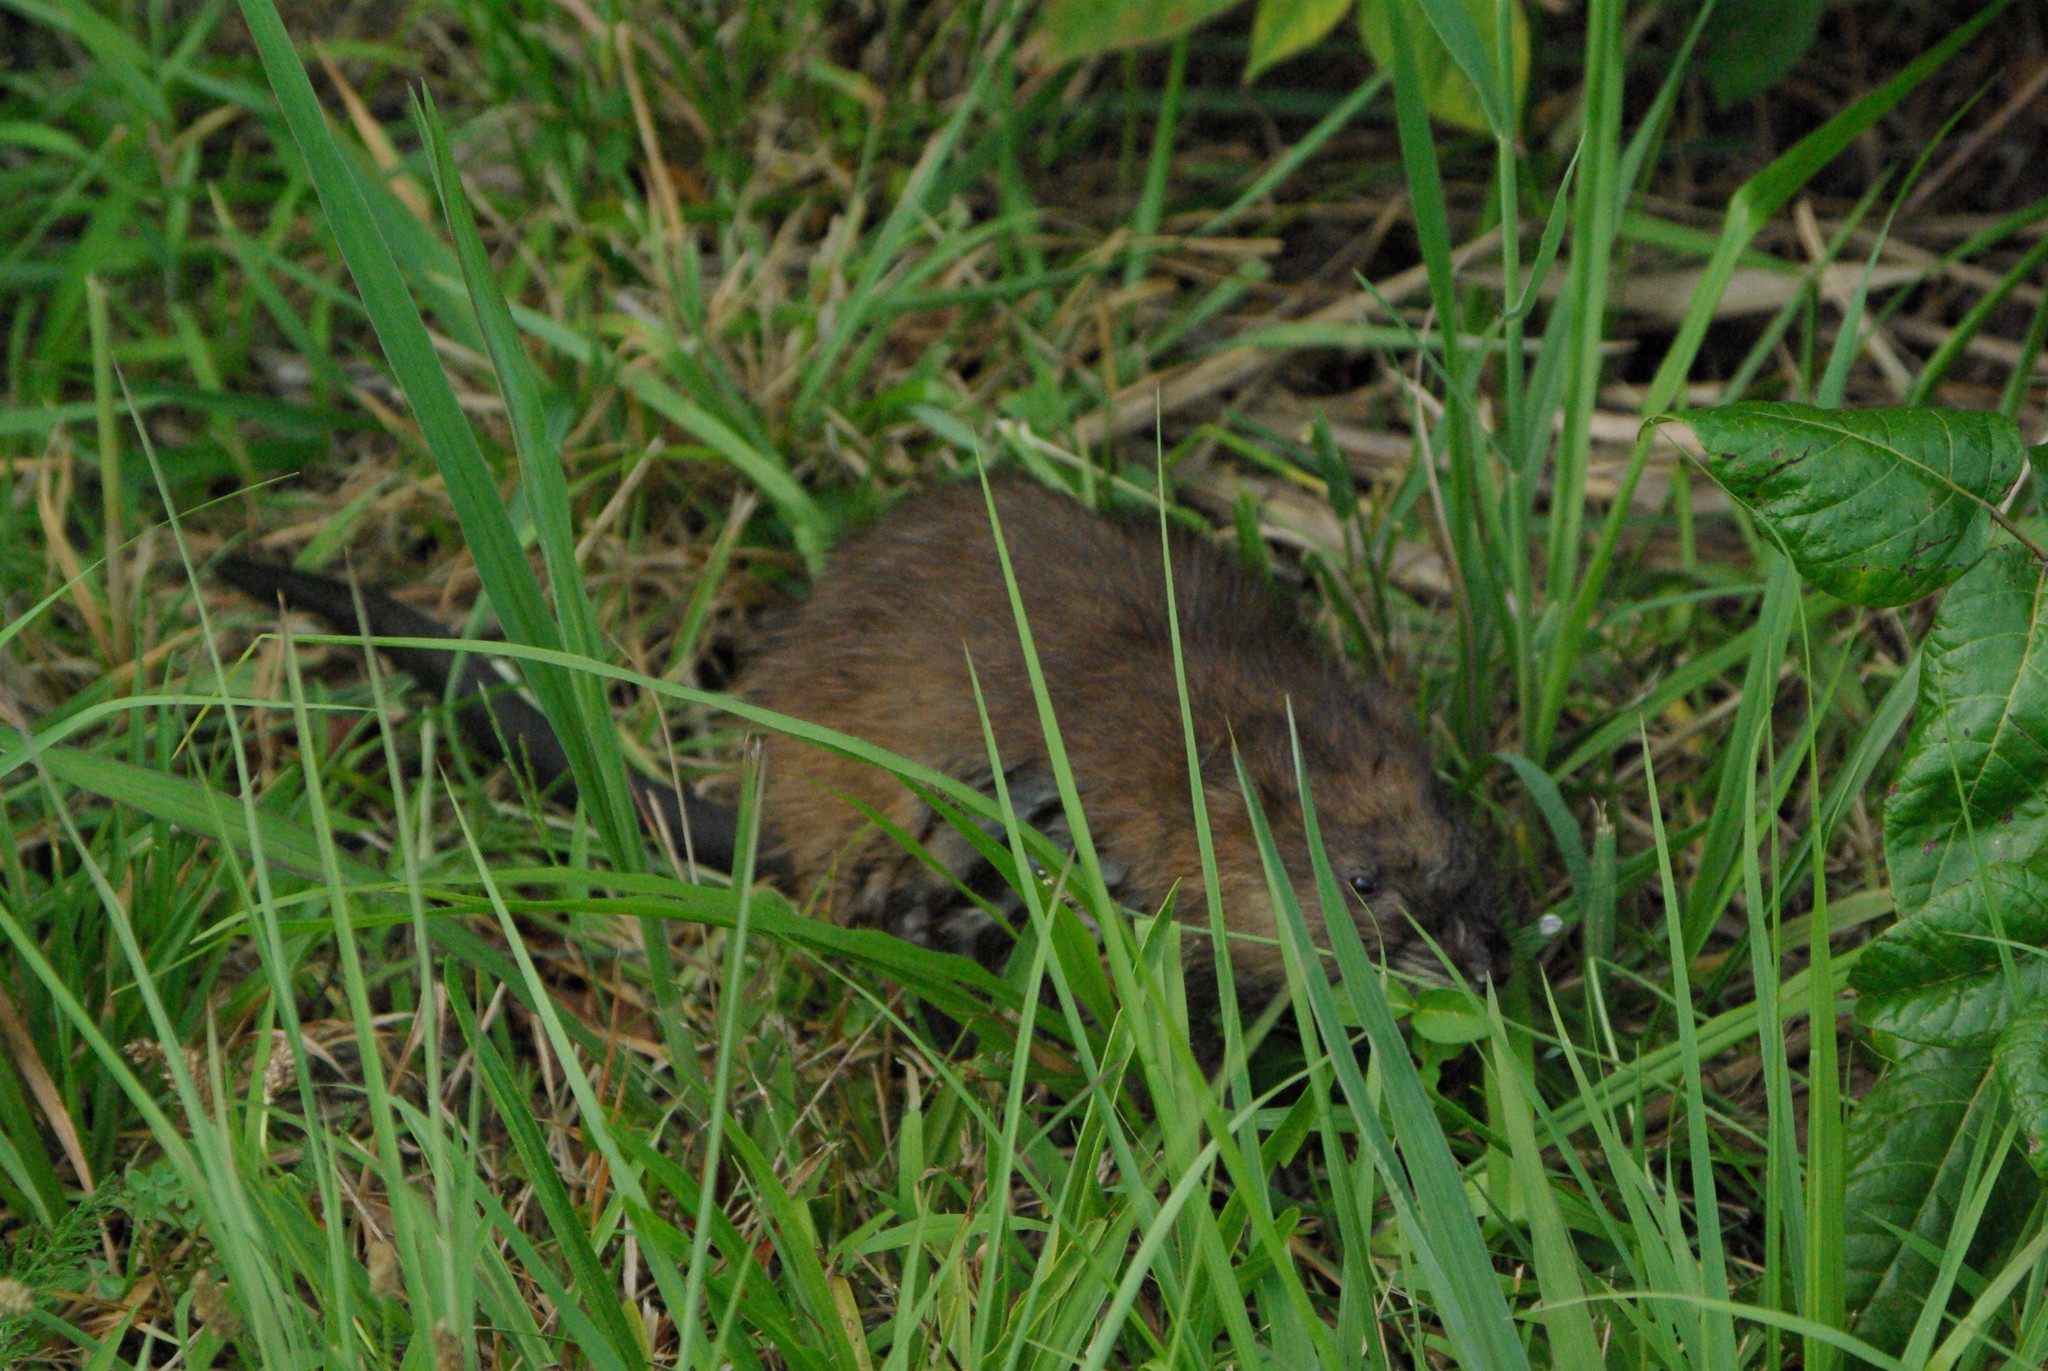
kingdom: Animalia
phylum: Chordata
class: Mammalia
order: Rodentia
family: Cricetidae
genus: Ondatra
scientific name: Ondatra zibethicus
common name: Muskrat
